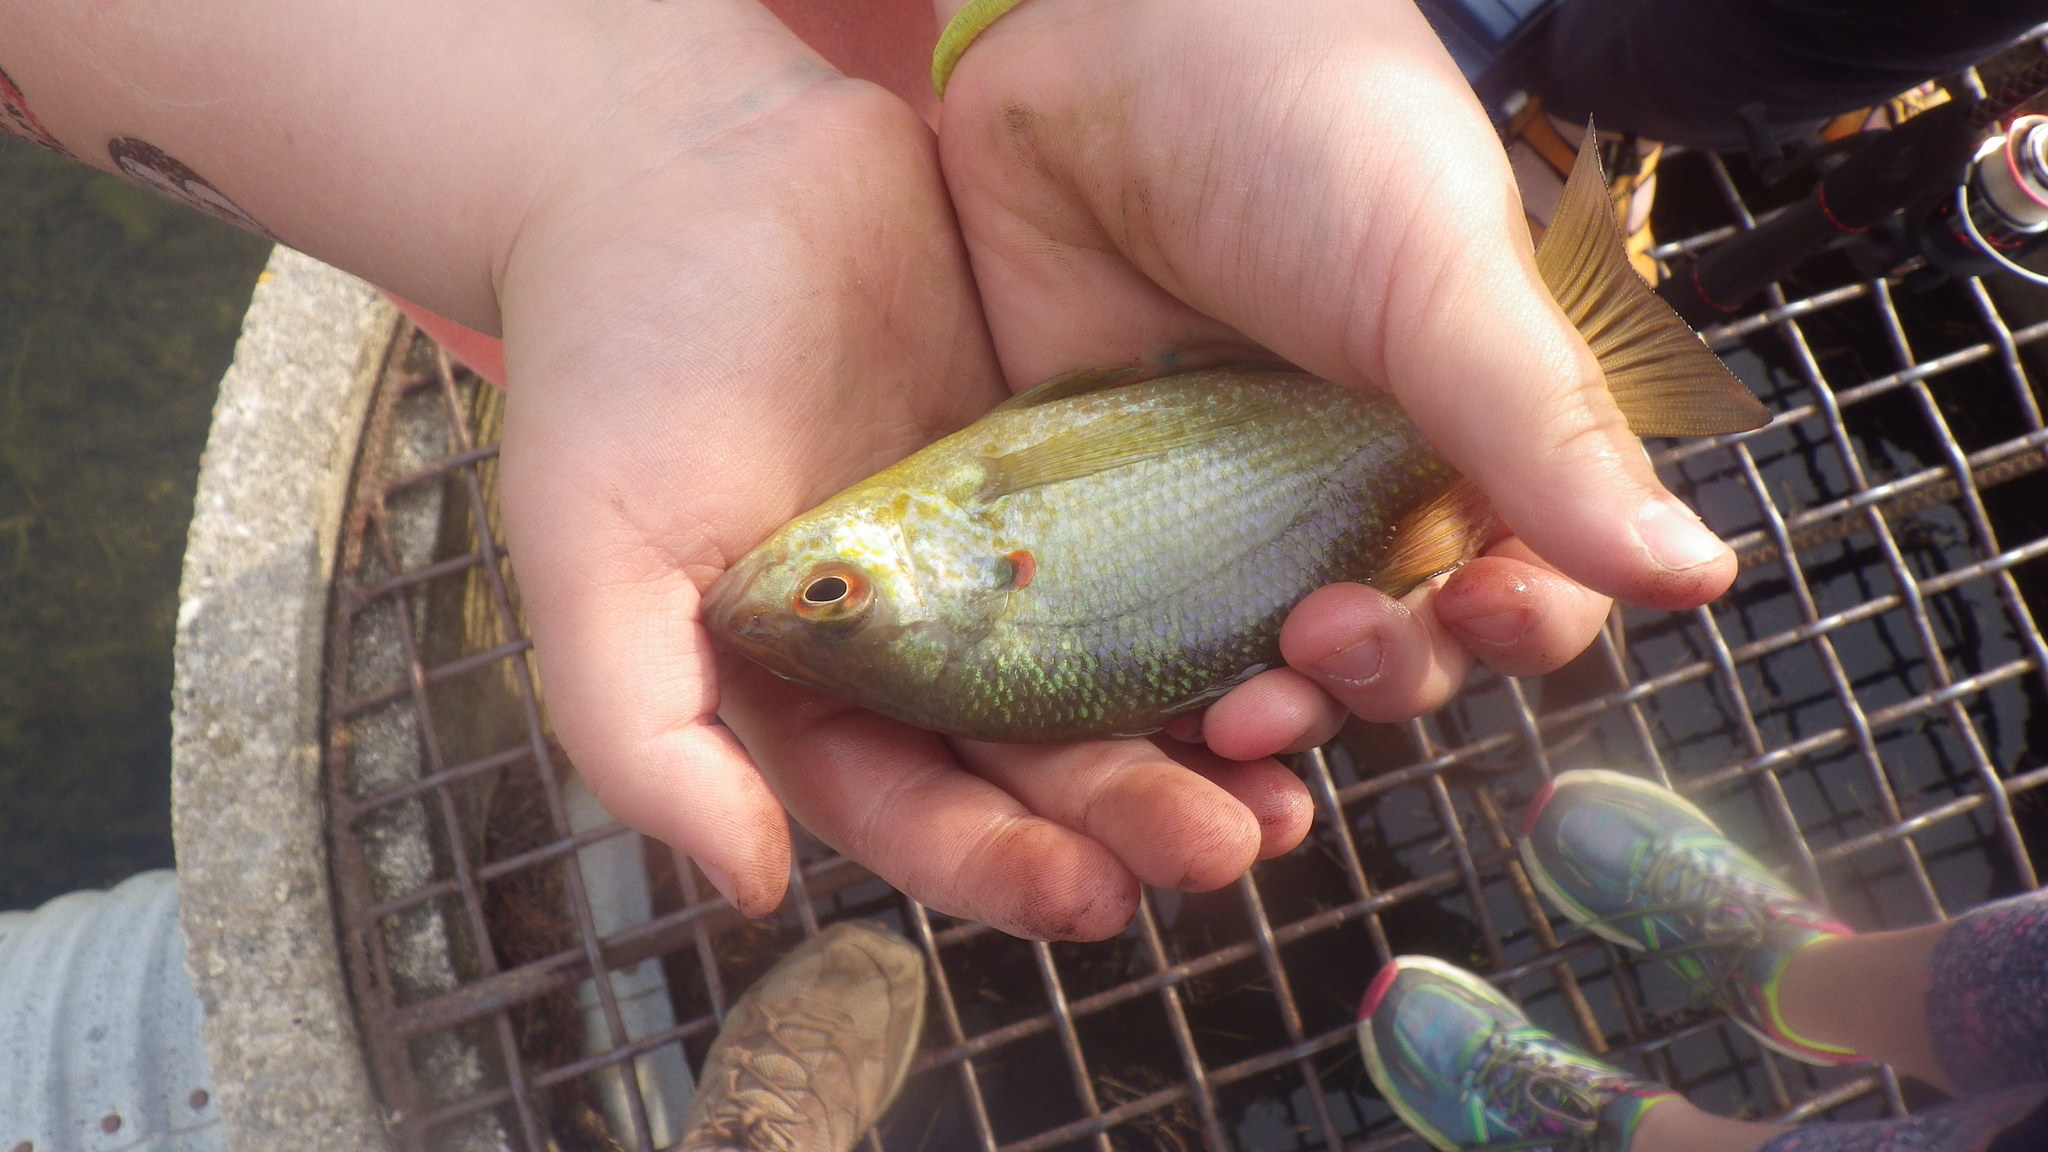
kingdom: Animalia
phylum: Chordata
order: Perciformes
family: Centrarchidae
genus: Lepomis
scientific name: Lepomis microlophus
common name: Redear sunfish
